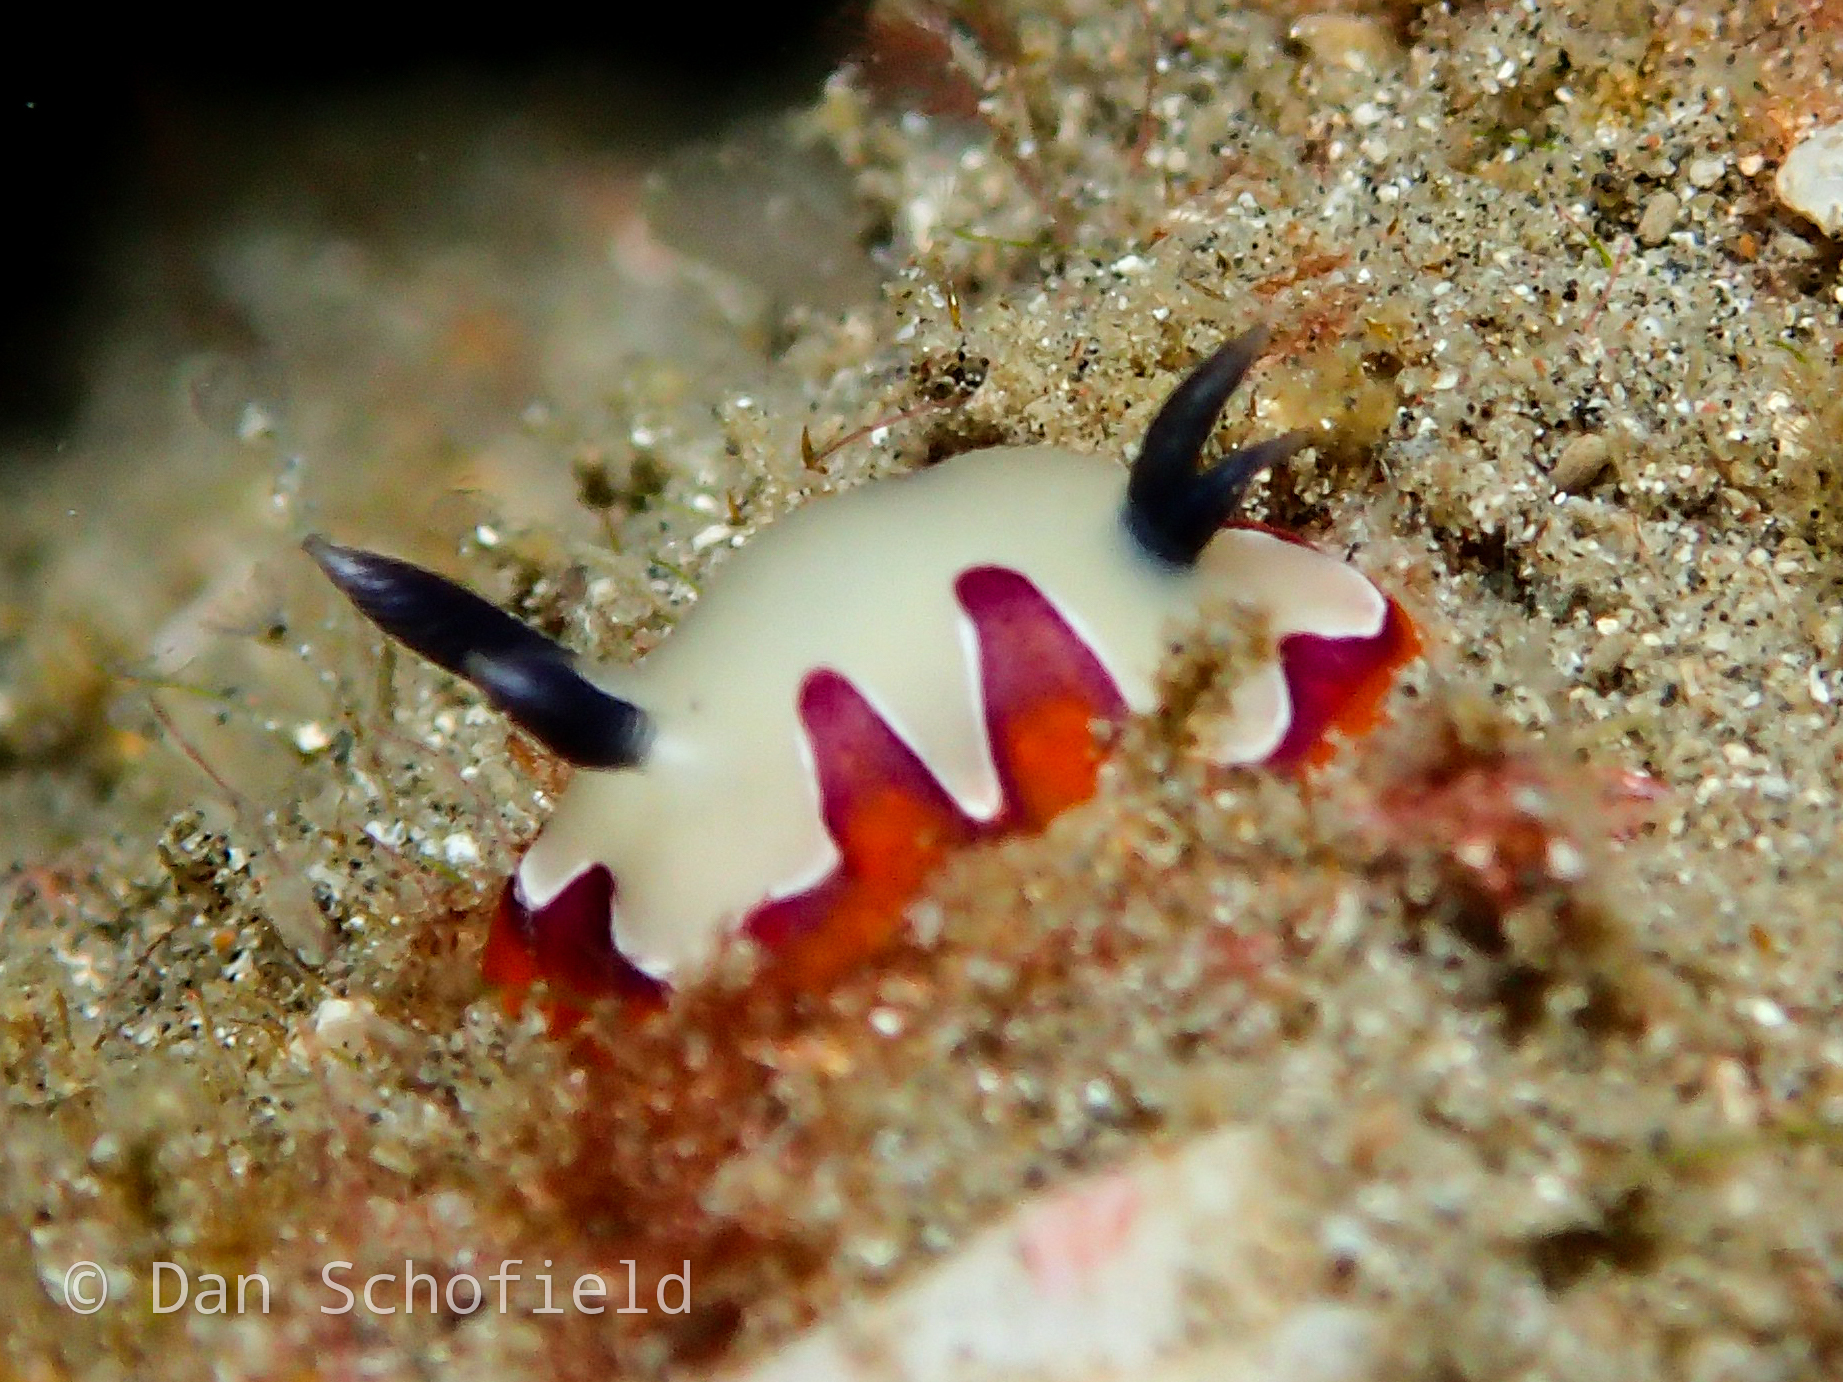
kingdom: Animalia
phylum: Mollusca
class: Gastropoda
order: Nudibranchia
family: Chromodorididae
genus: Goniobranchus
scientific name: Goniobranchus fidelis
